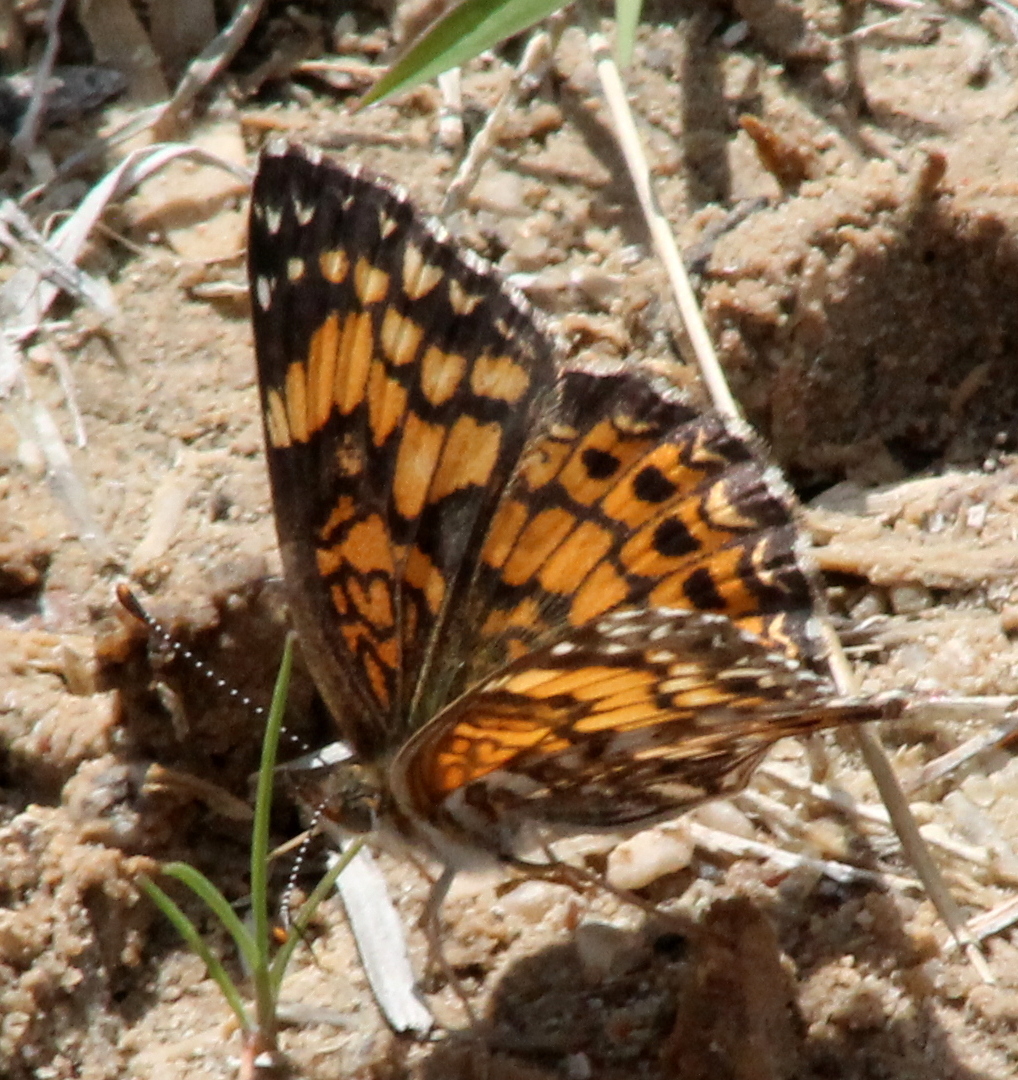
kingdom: Animalia
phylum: Arthropoda
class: Insecta
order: Lepidoptera
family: Nymphalidae
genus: Chlosyne
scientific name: Chlosyne gorgone
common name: Gorgone checkerspot
